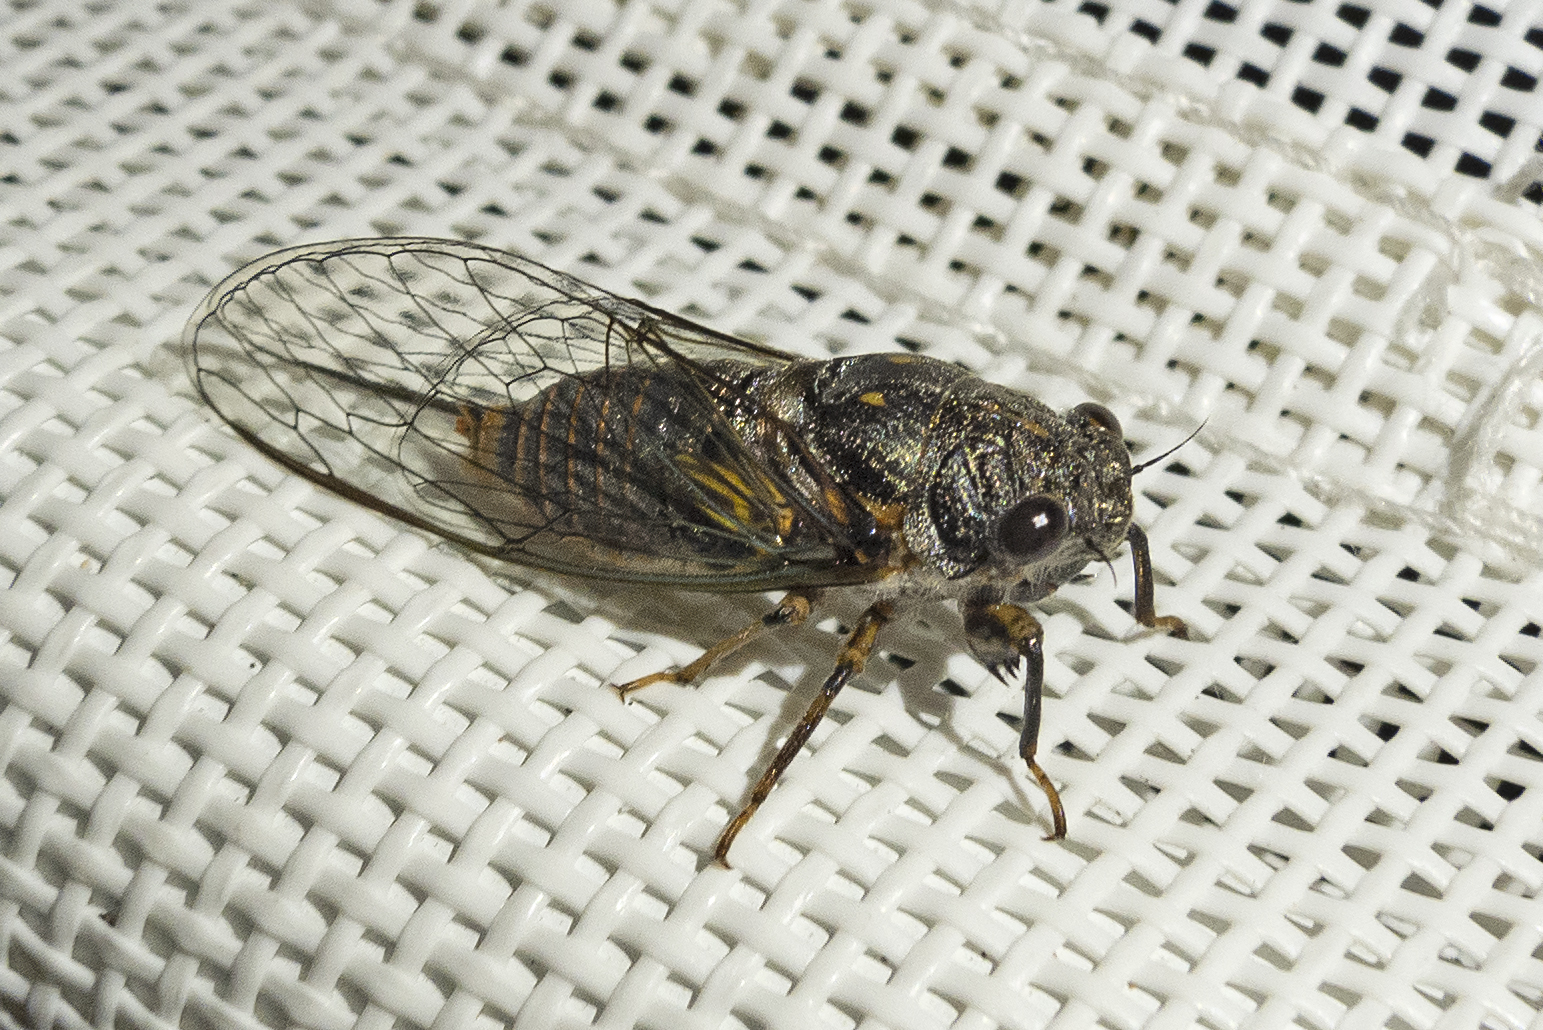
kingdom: Animalia
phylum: Arthropoda
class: Insecta
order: Hemiptera
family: Cicadidae
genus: Dimissalna
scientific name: Dimissalna dimissa
